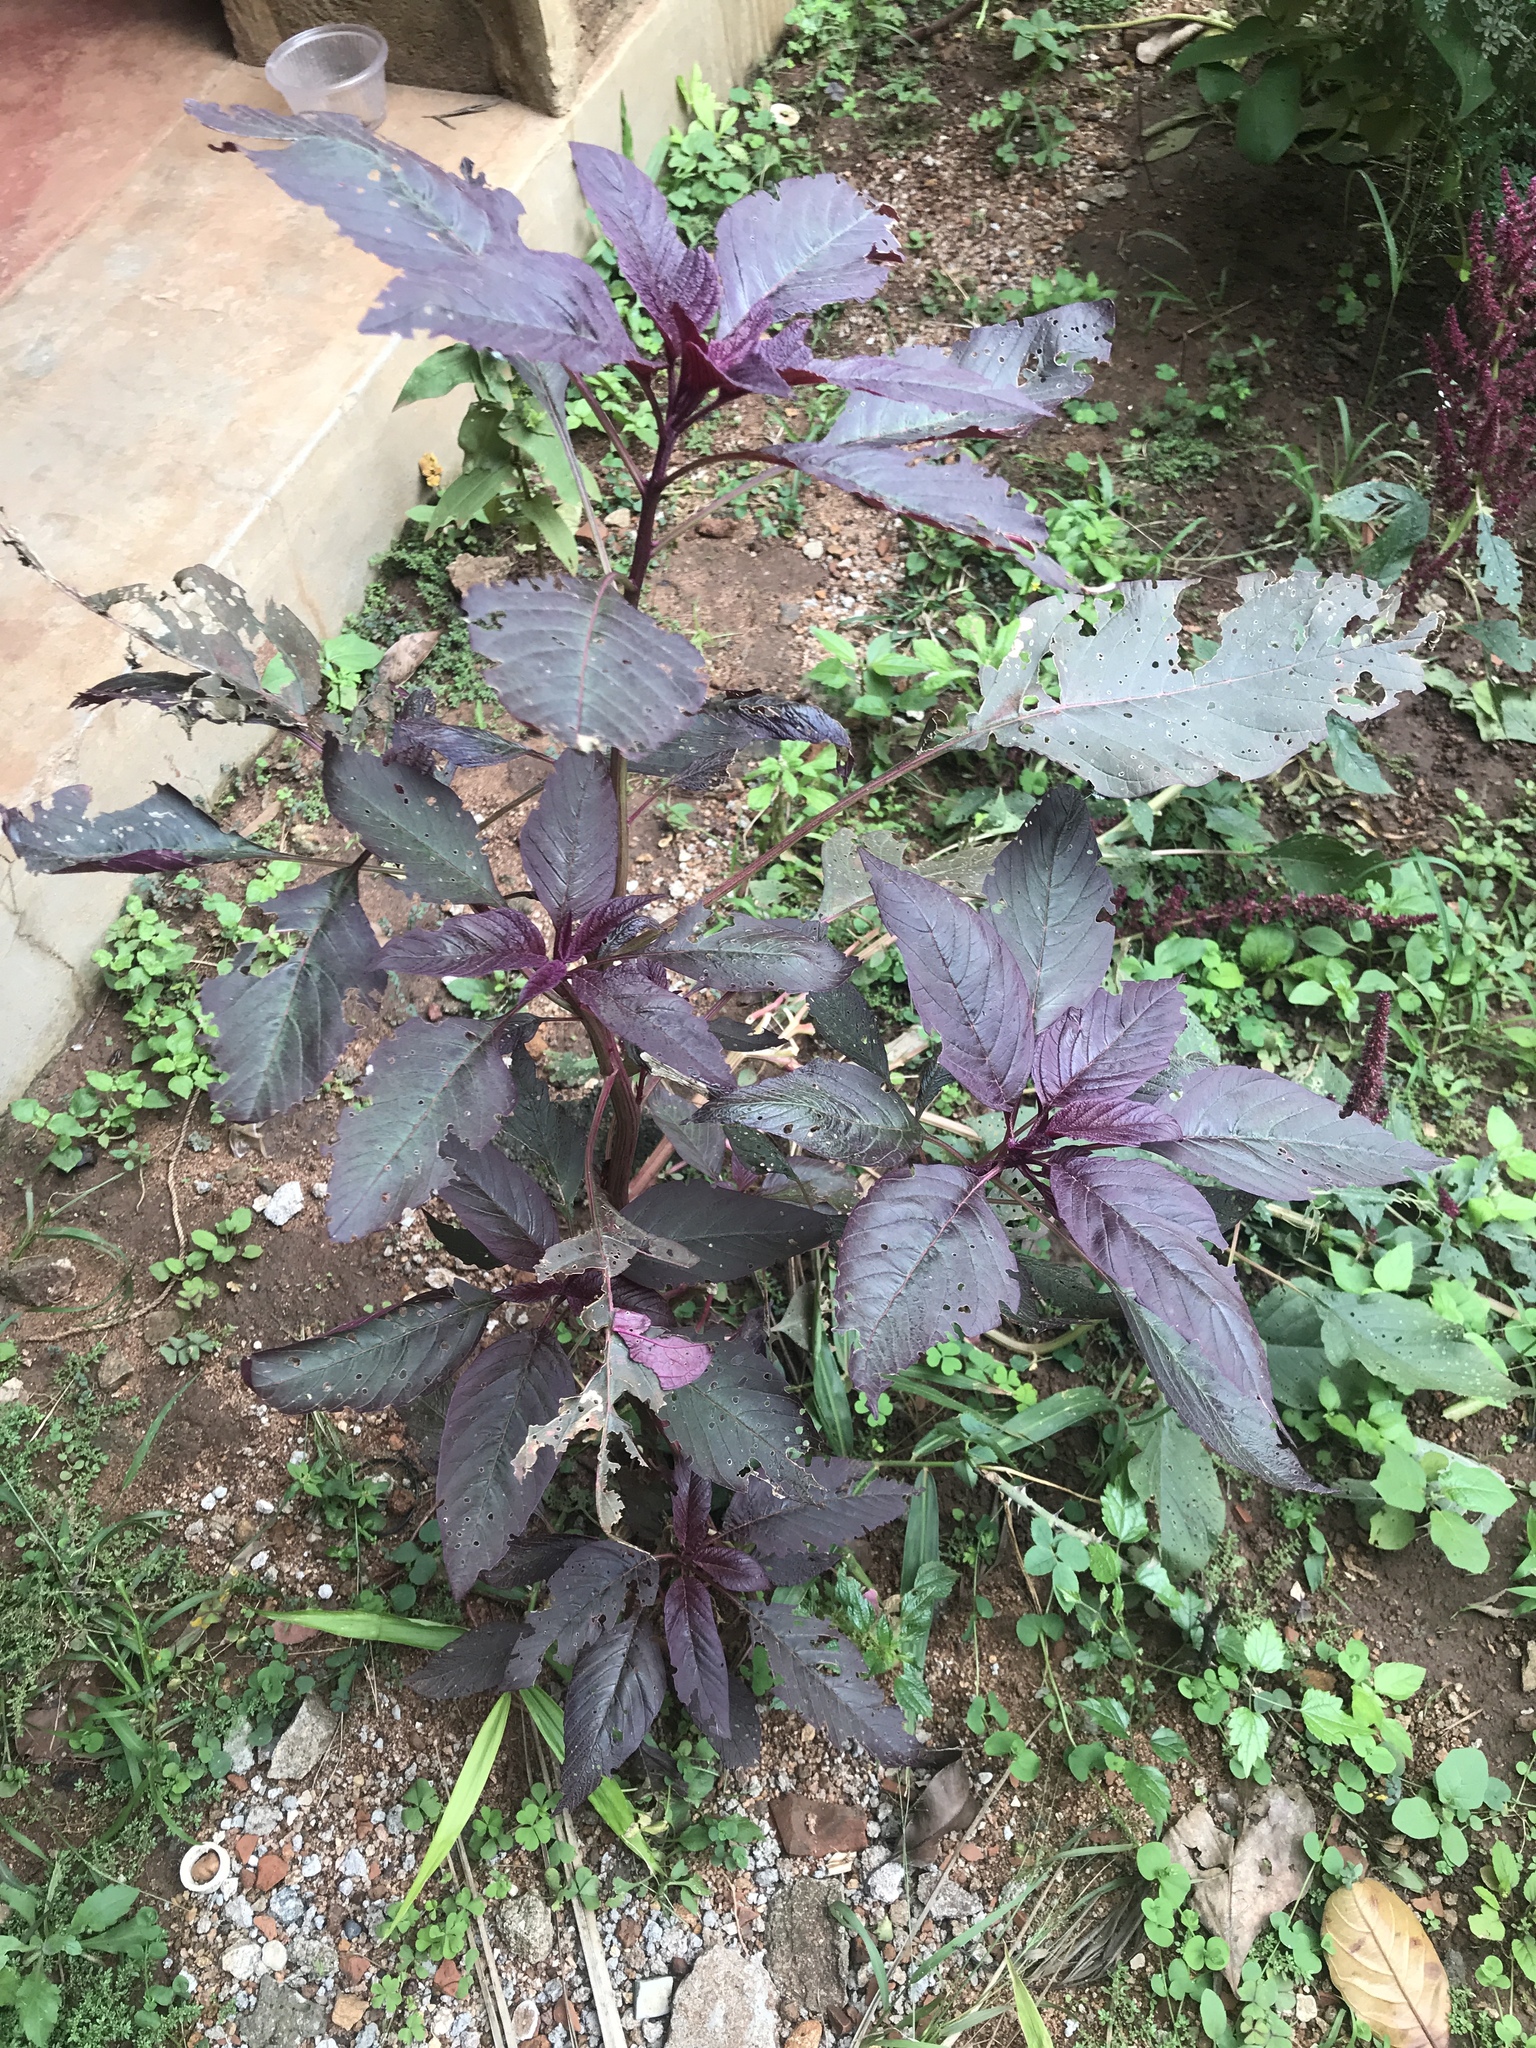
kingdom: Plantae
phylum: Tracheophyta
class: Magnoliopsida
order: Caryophyllales
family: Amaranthaceae
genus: Amaranthus
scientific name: Amaranthus cruentus
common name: Purple amaranth
